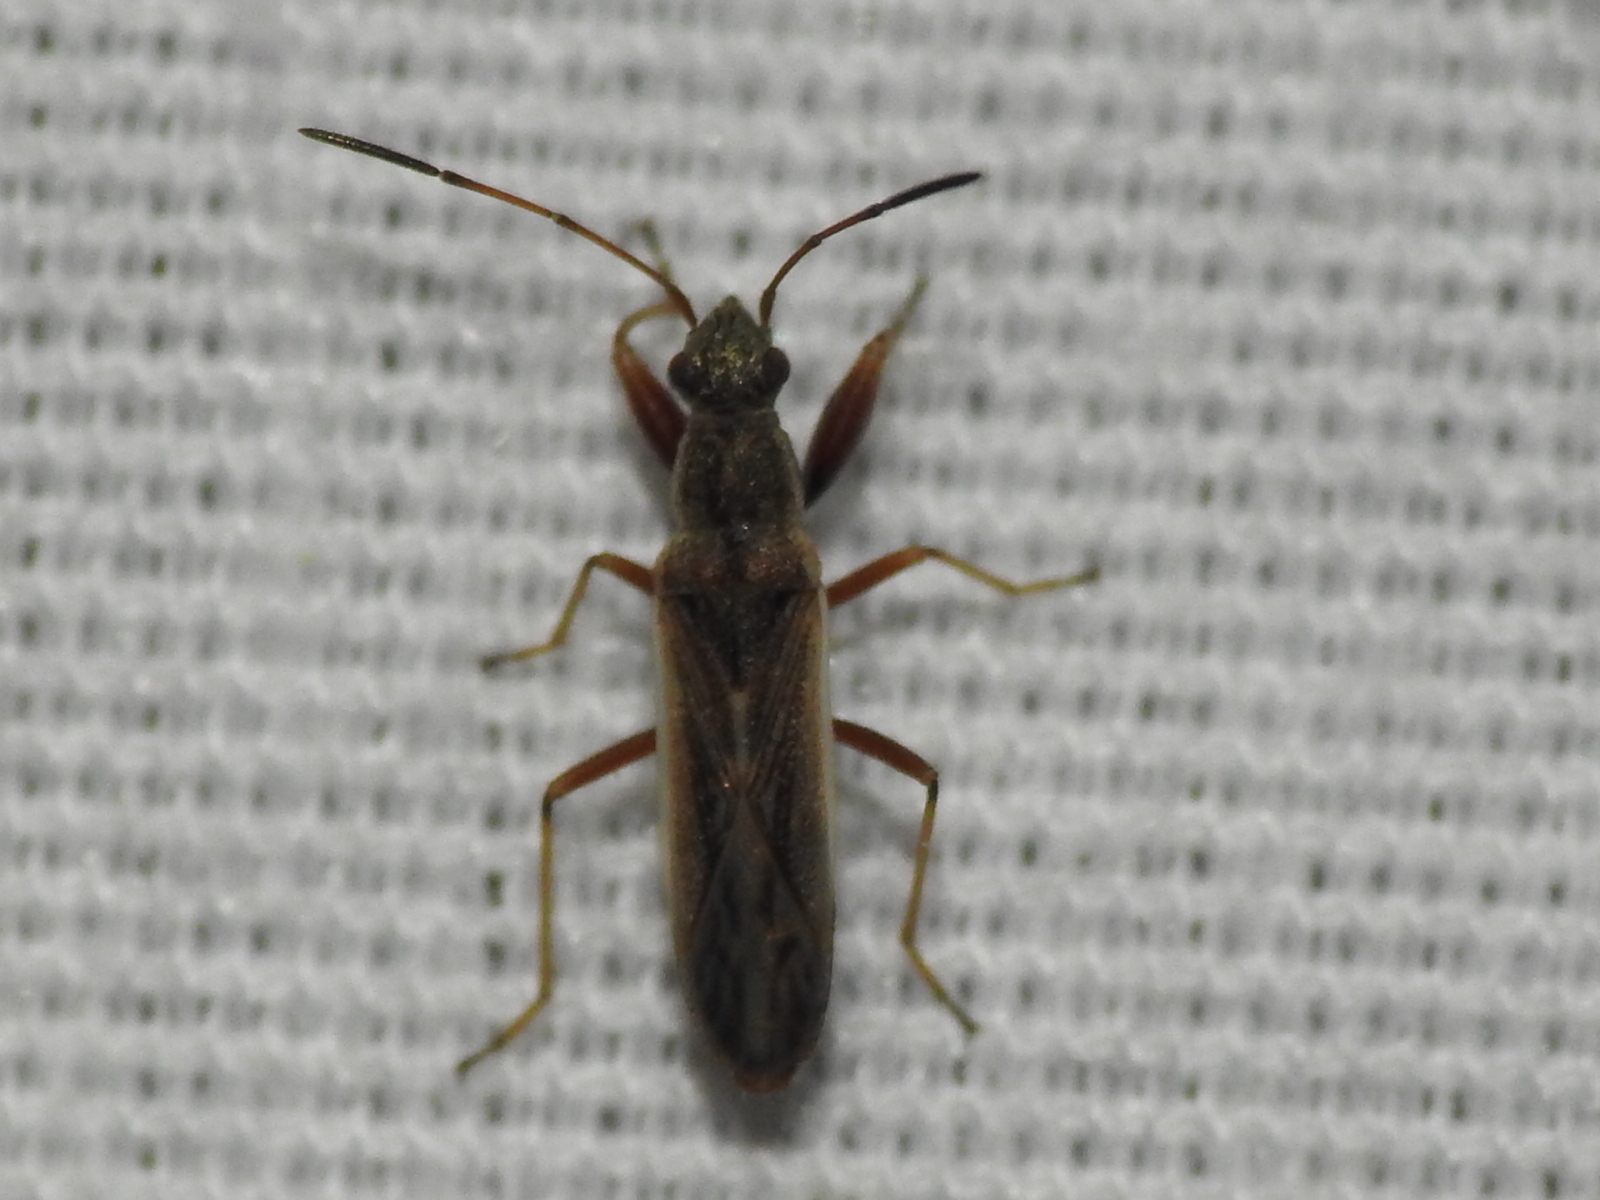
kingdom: Animalia
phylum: Arthropoda
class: Insecta
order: Hemiptera
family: Rhyparochromidae
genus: Paromius
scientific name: Paromius longulus
